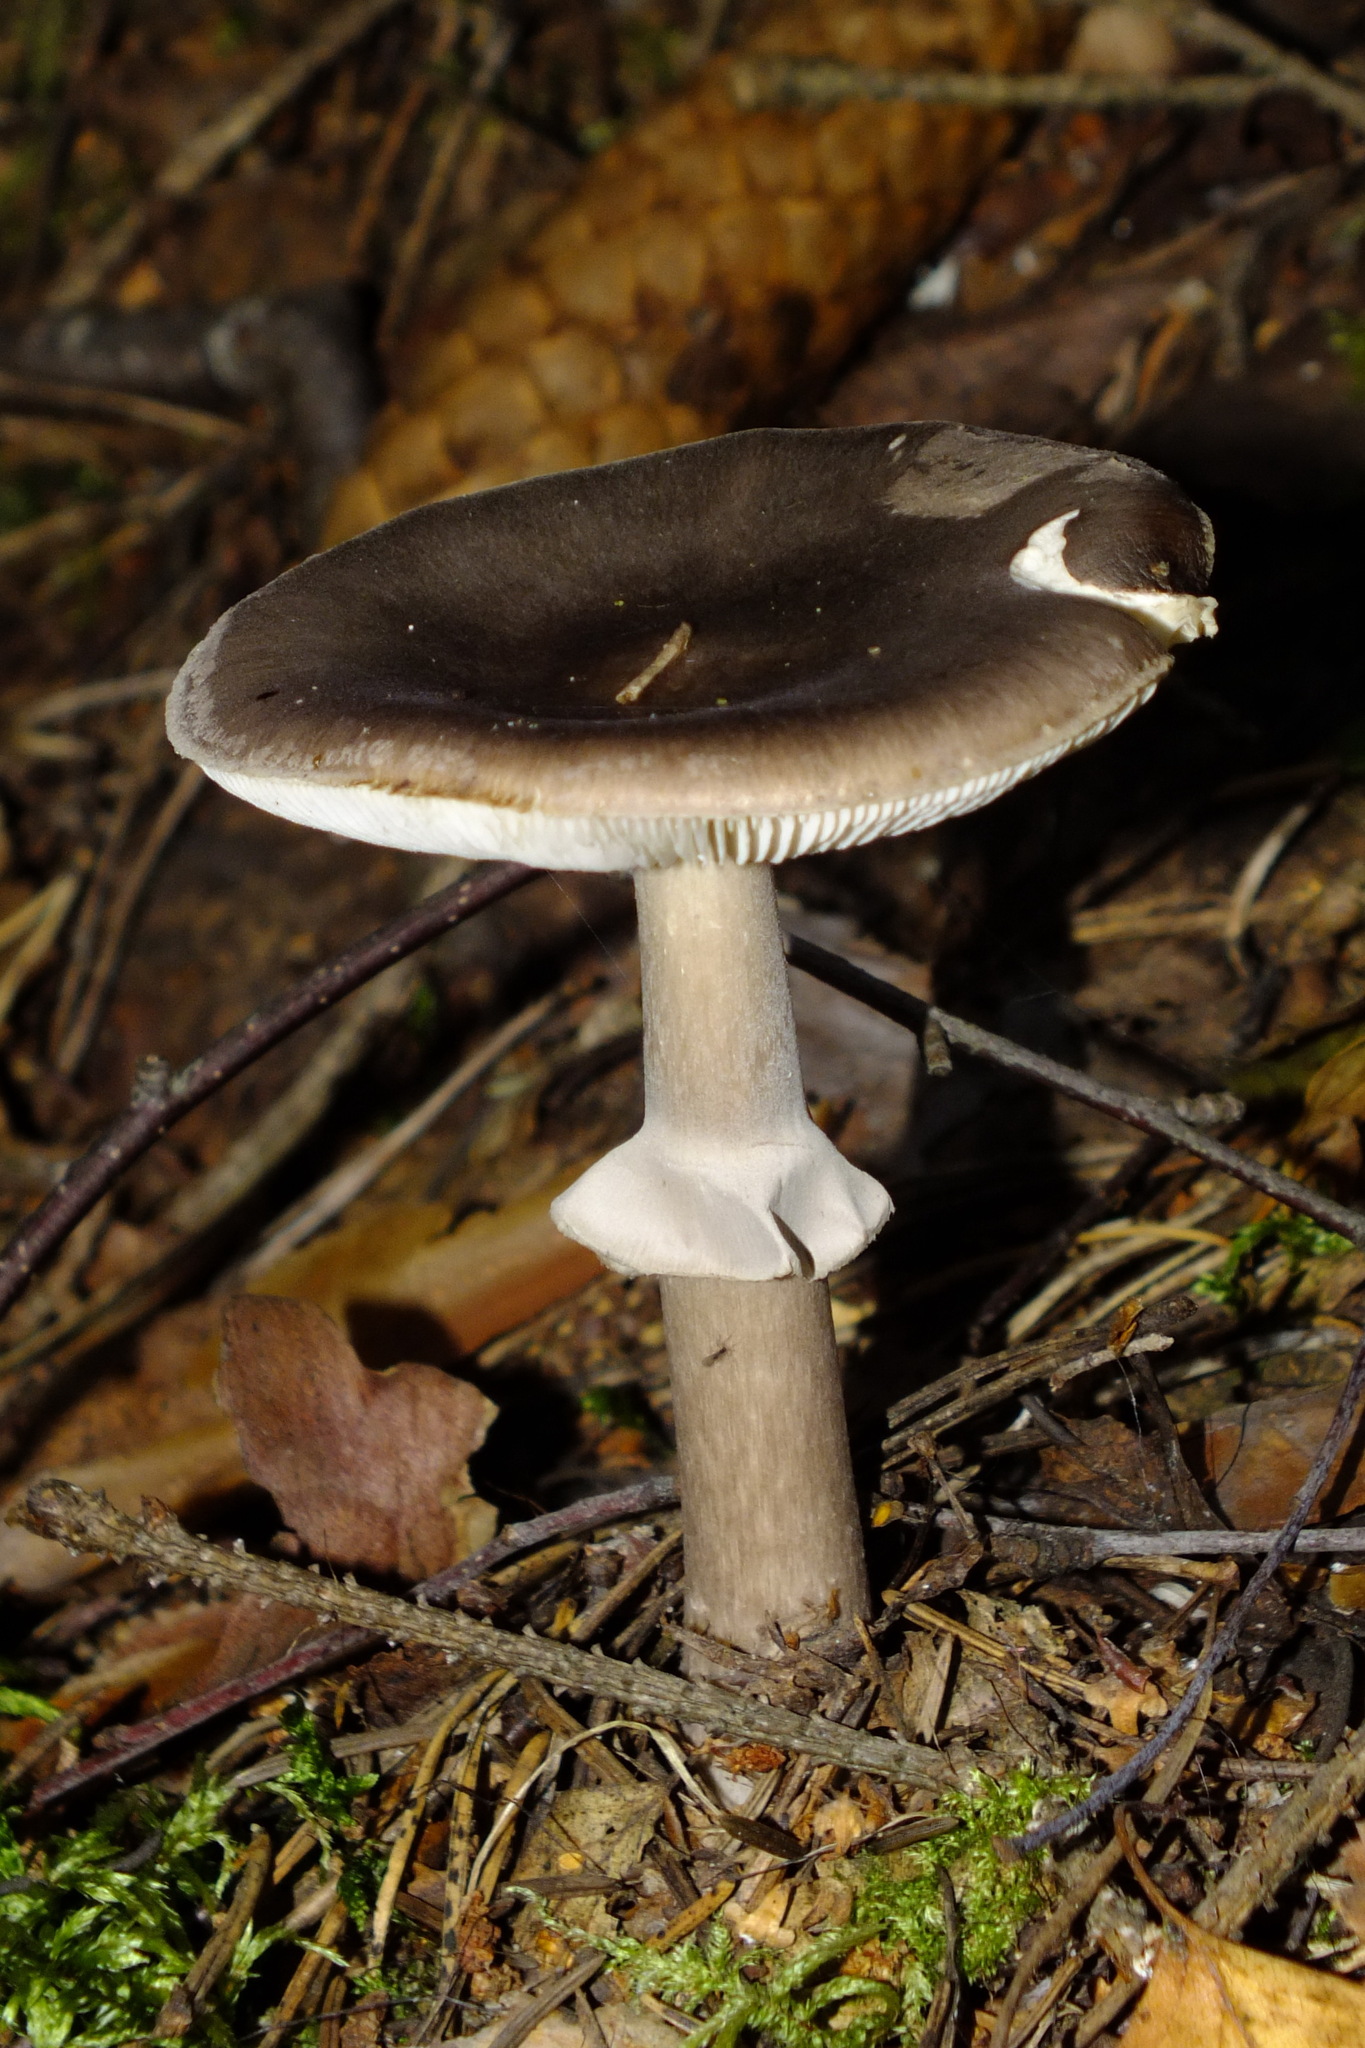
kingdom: Fungi
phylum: Basidiomycota
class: Agaricomycetes
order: Agaricales
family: Amanitaceae
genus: Amanita
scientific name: Amanita porphyria
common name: Grey veiled amanita
